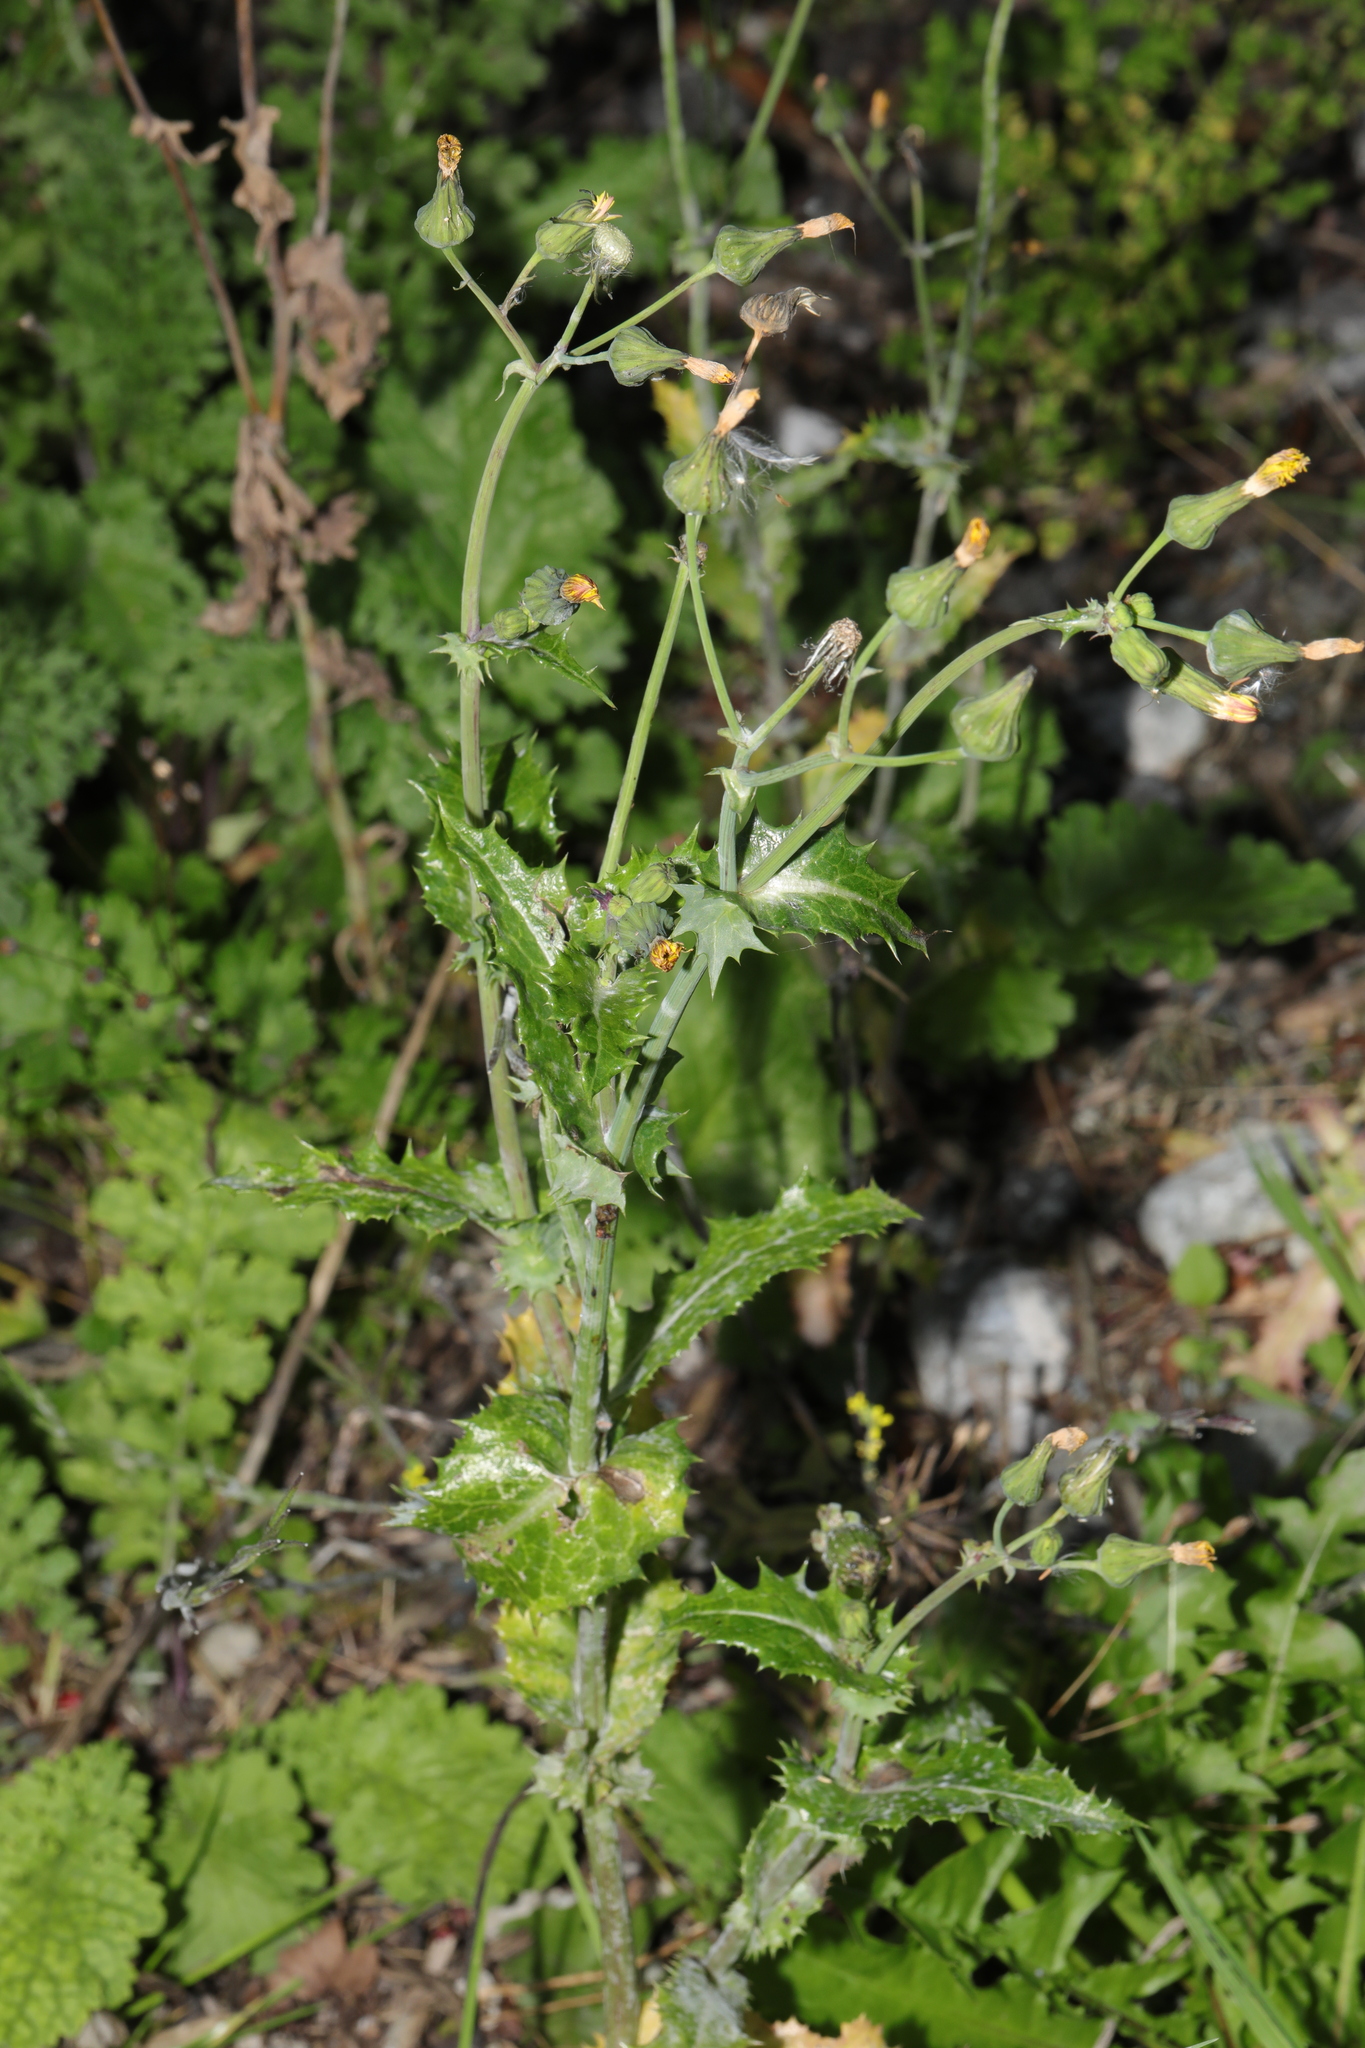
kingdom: Plantae
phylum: Tracheophyta
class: Magnoliopsida
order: Asterales
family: Asteraceae
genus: Sonchus
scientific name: Sonchus asper
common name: Prickly sow-thistle
